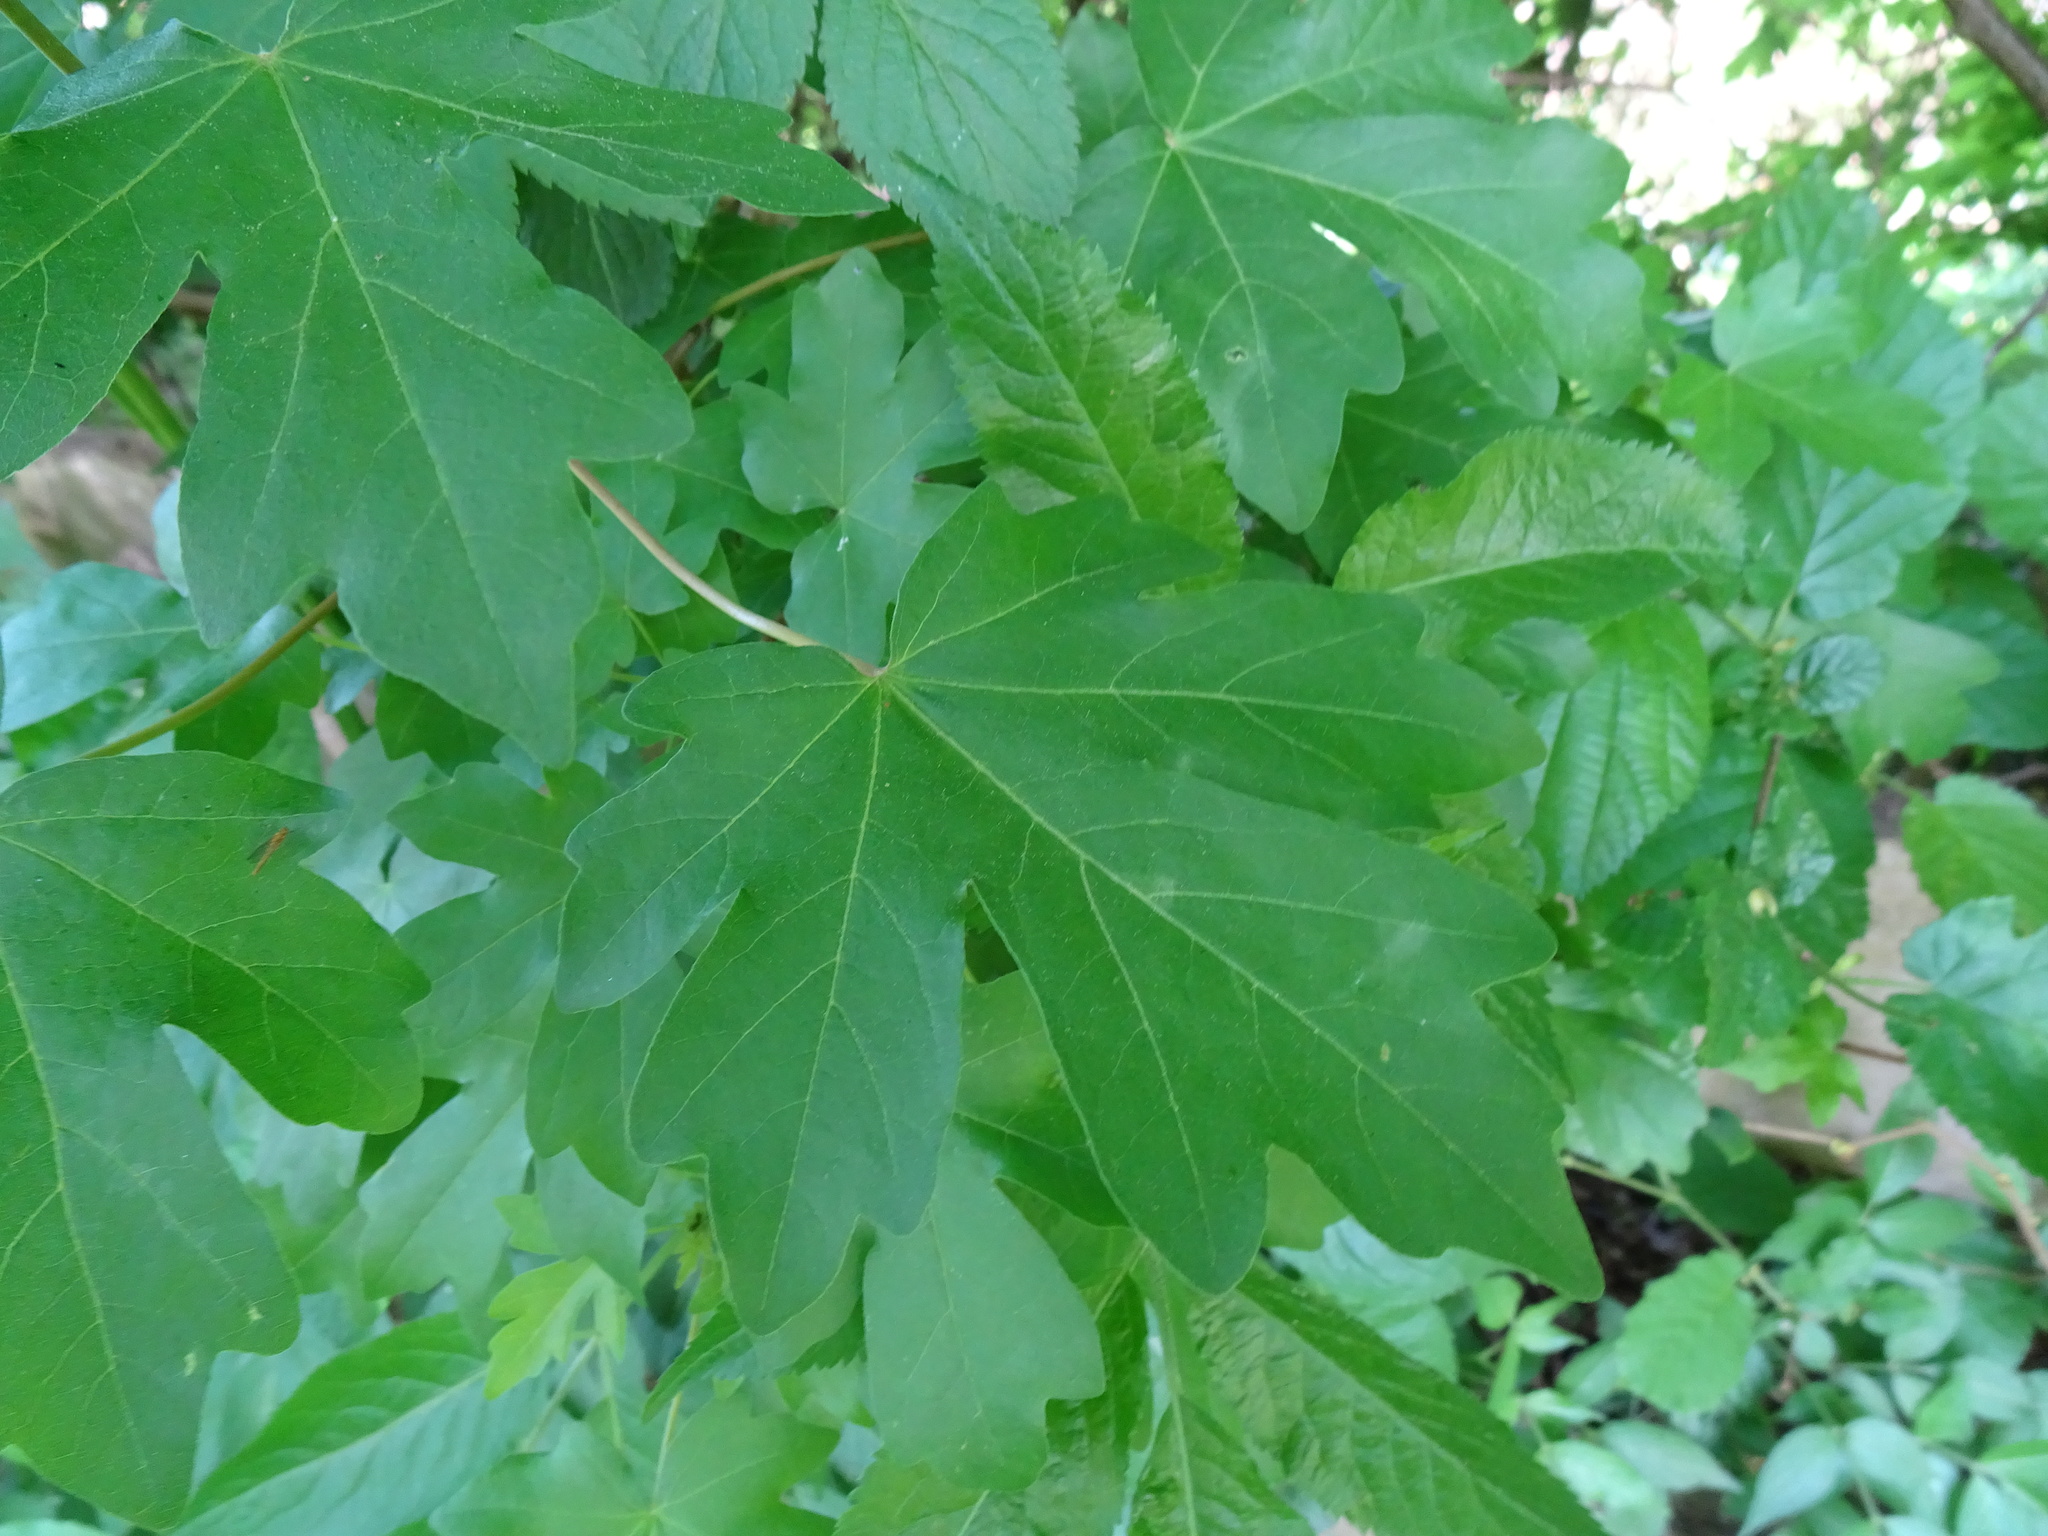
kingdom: Plantae
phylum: Tracheophyta
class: Magnoliopsida
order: Sapindales
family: Sapindaceae
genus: Acer
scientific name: Acer campestre
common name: Field maple
